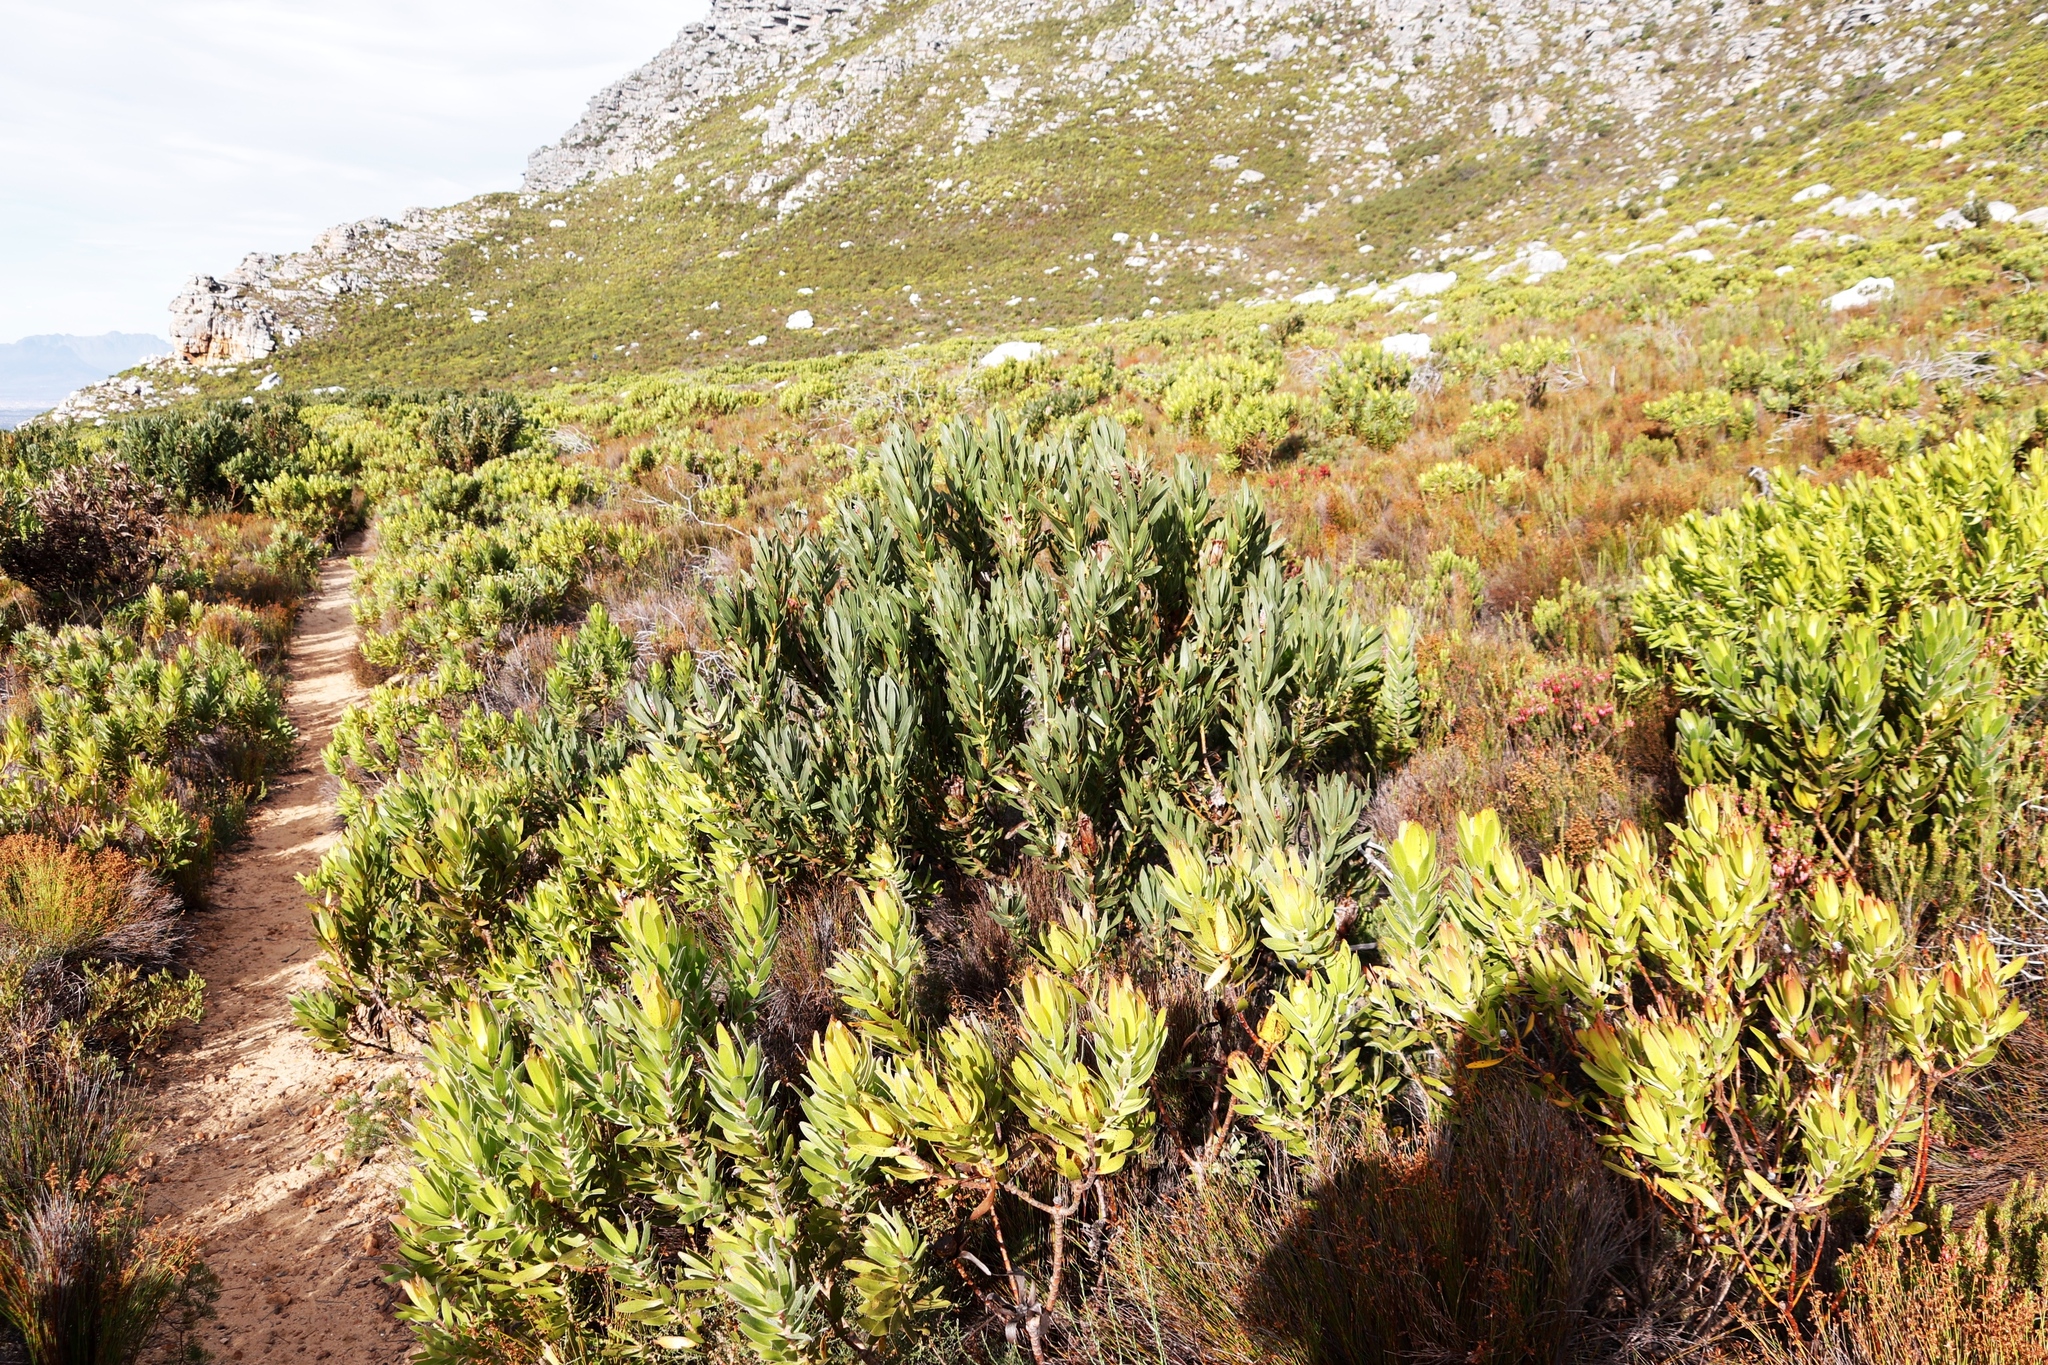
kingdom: Plantae
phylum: Tracheophyta
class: Magnoliopsida
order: Proteales
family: Proteaceae
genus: Protea
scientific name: Protea lepidocarpodendron
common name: Black-bearded protea
